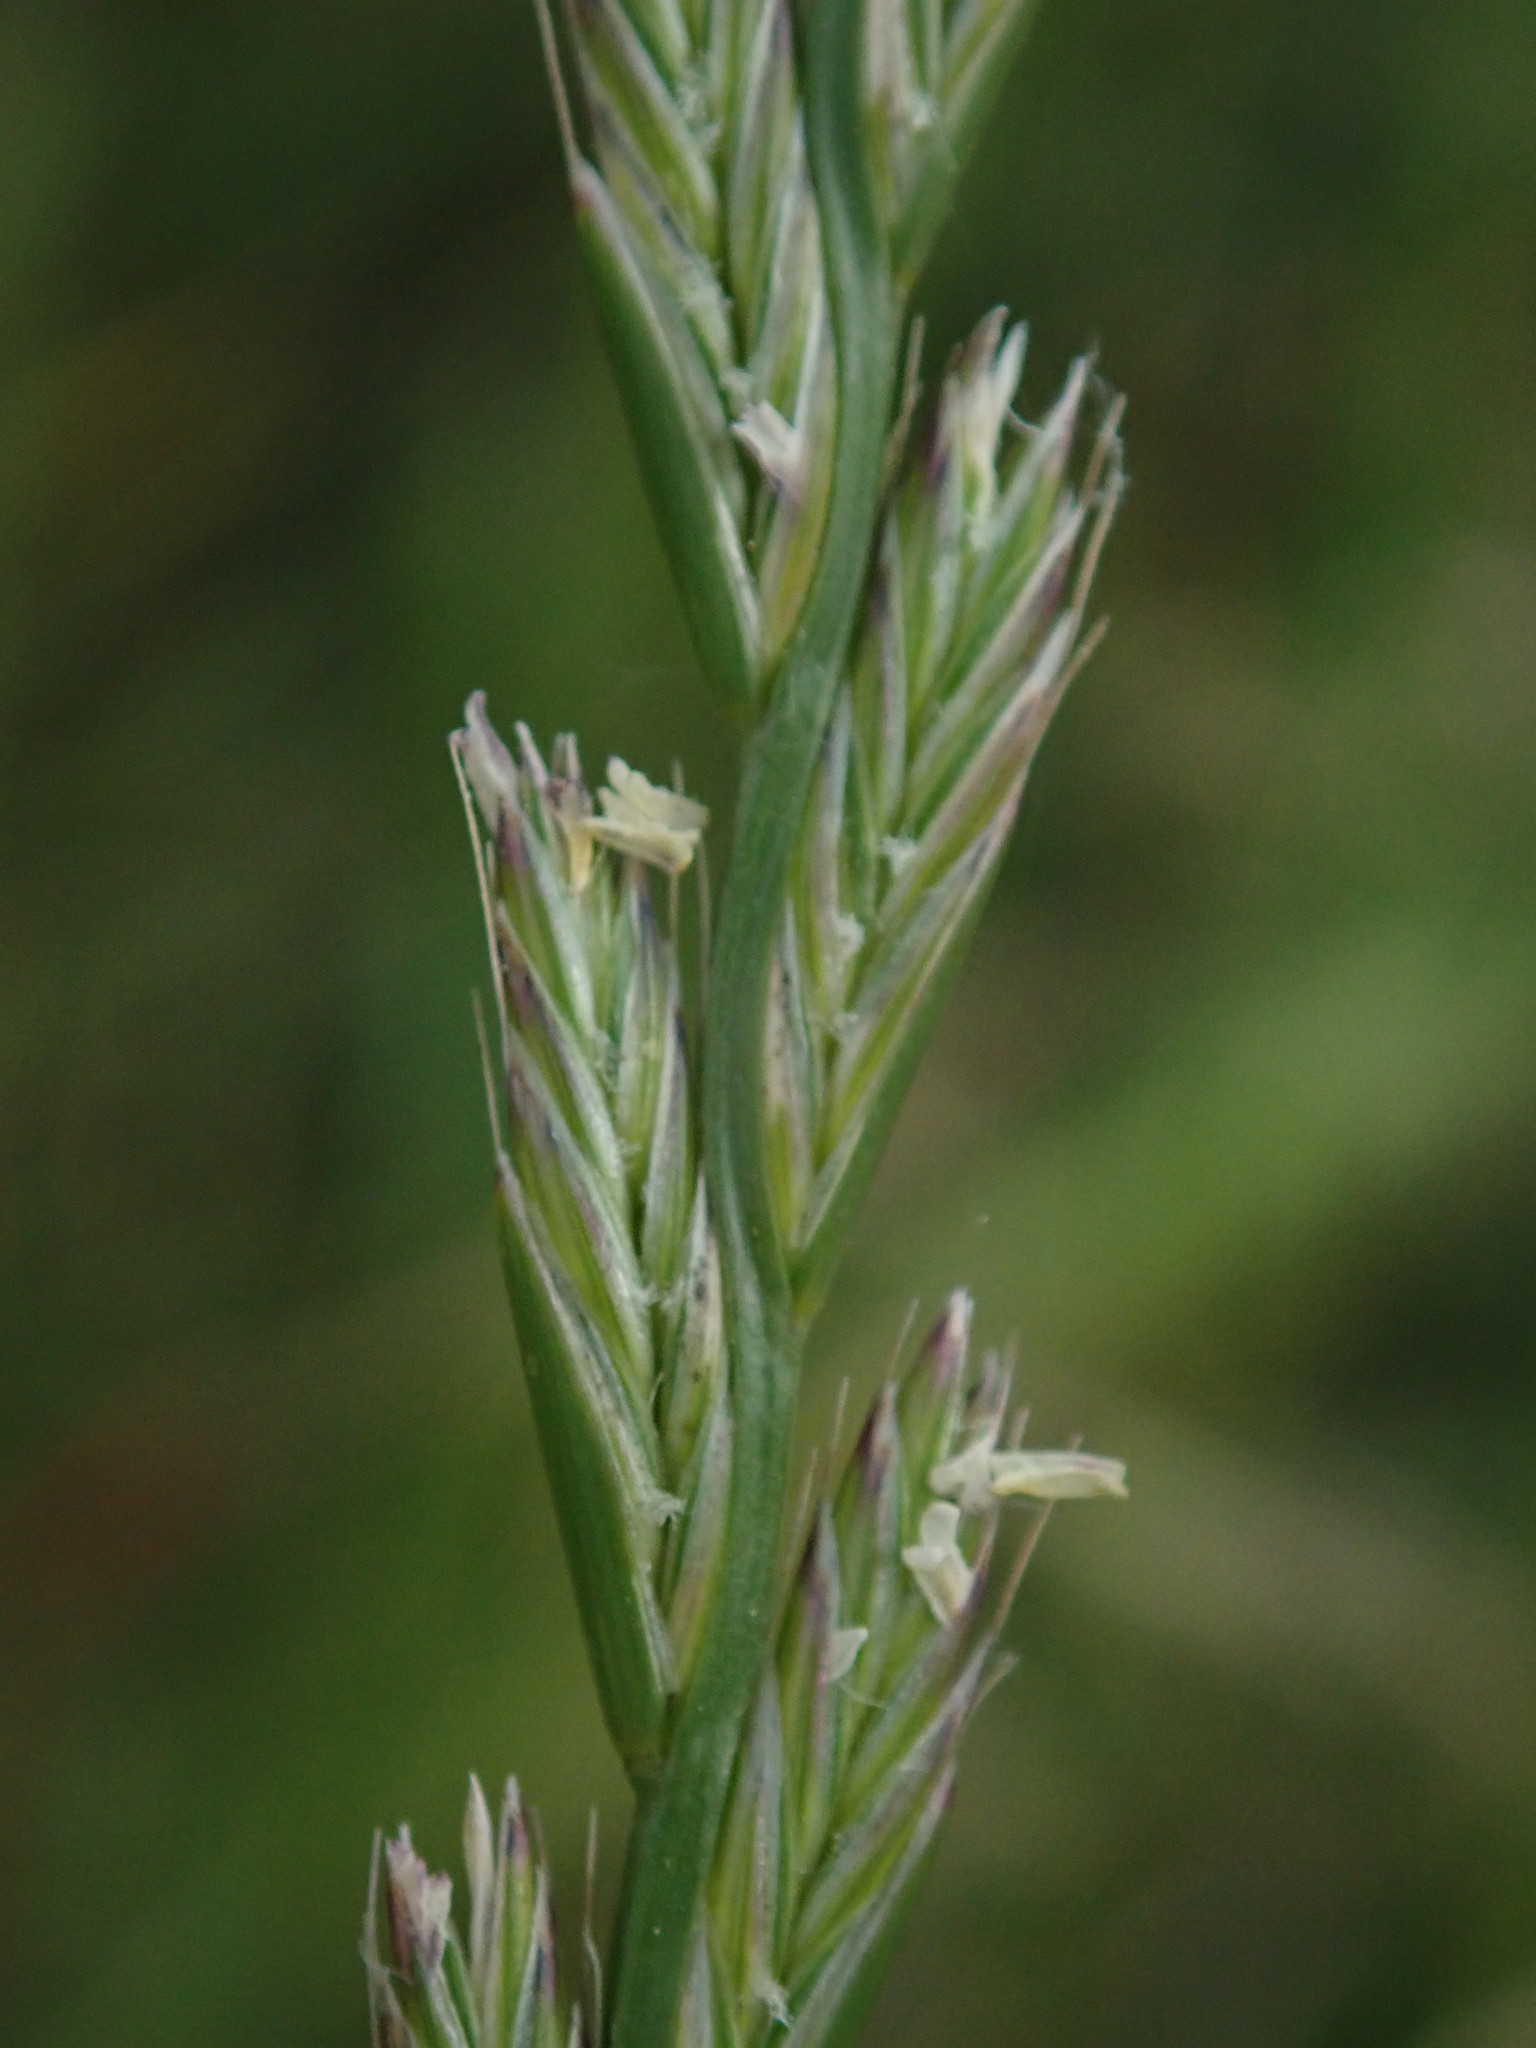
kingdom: Plantae
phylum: Tracheophyta
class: Liliopsida
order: Poales
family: Poaceae
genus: Lolium
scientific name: Lolium perenne
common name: Perennial ryegrass
